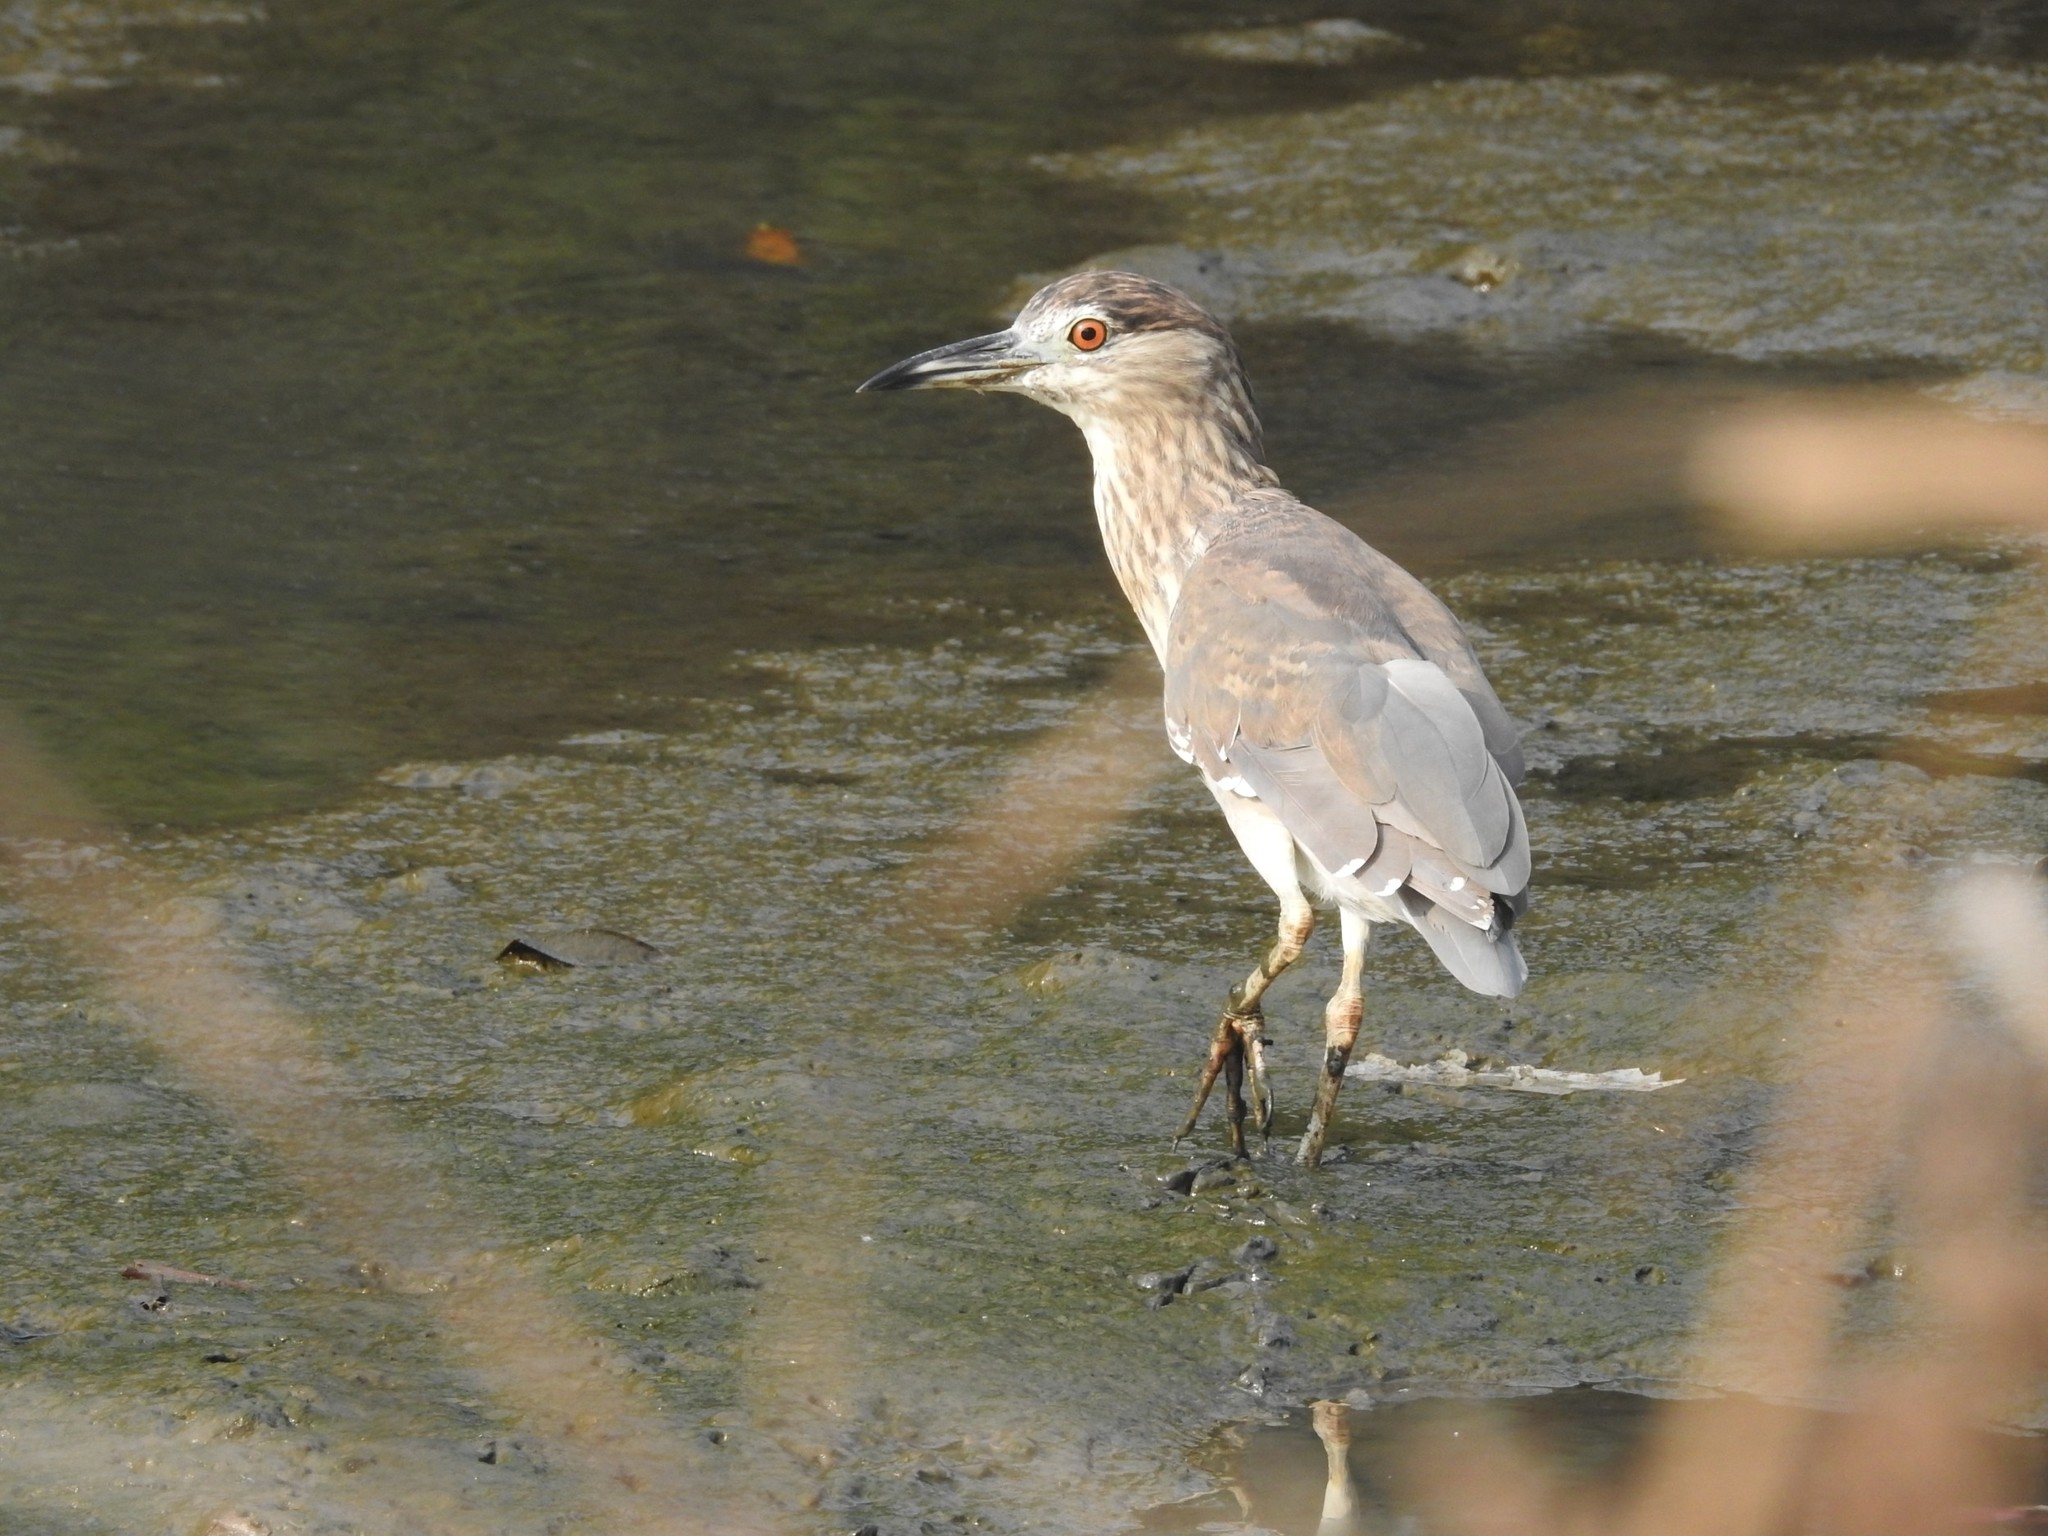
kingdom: Animalia
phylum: Chordata
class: Aves
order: Pelecaniformes
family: Ardeidae
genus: Nycticorax
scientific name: Nycticorax nycticorax
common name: Black-crowned night heron
